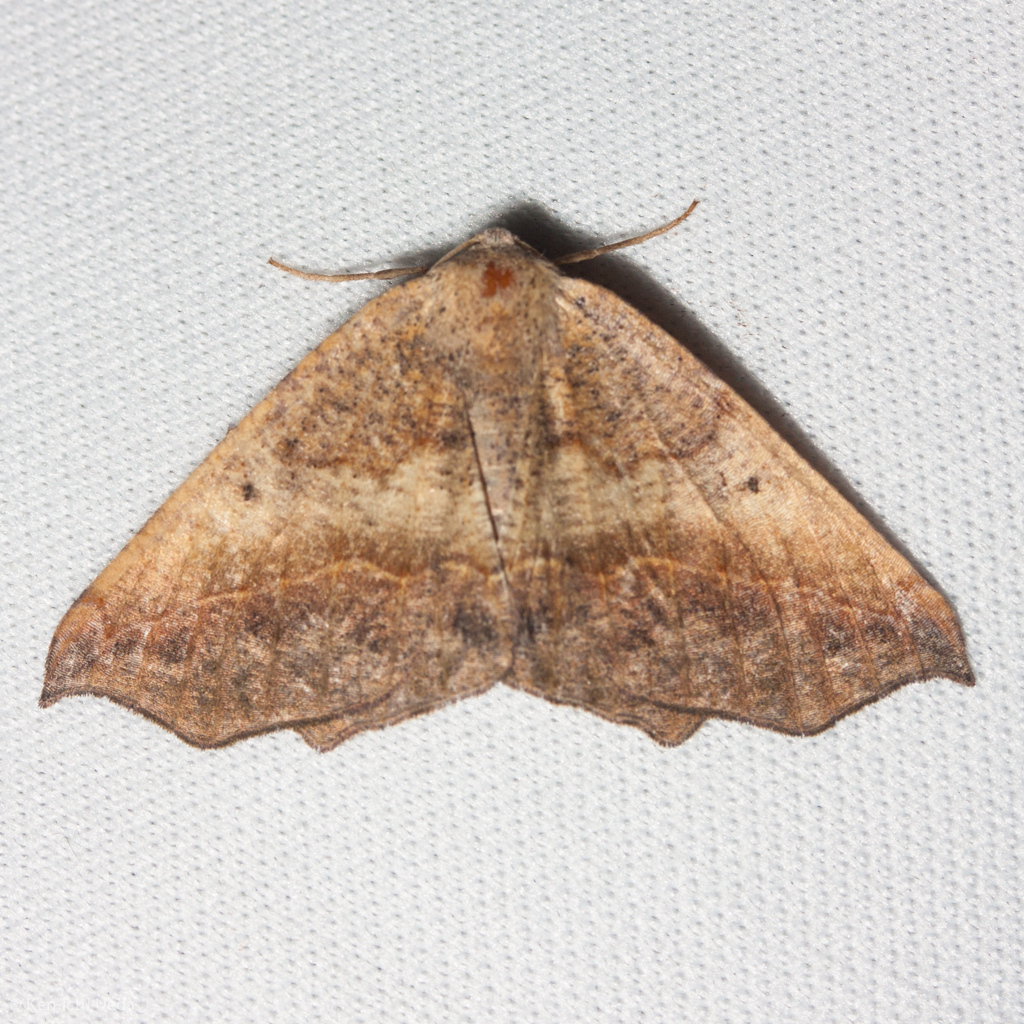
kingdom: Animalia
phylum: Arthropoda
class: Insecta
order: Lepidoptera
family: Geometridae
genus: Prochoerodes
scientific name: Prochoerodes forficaria
